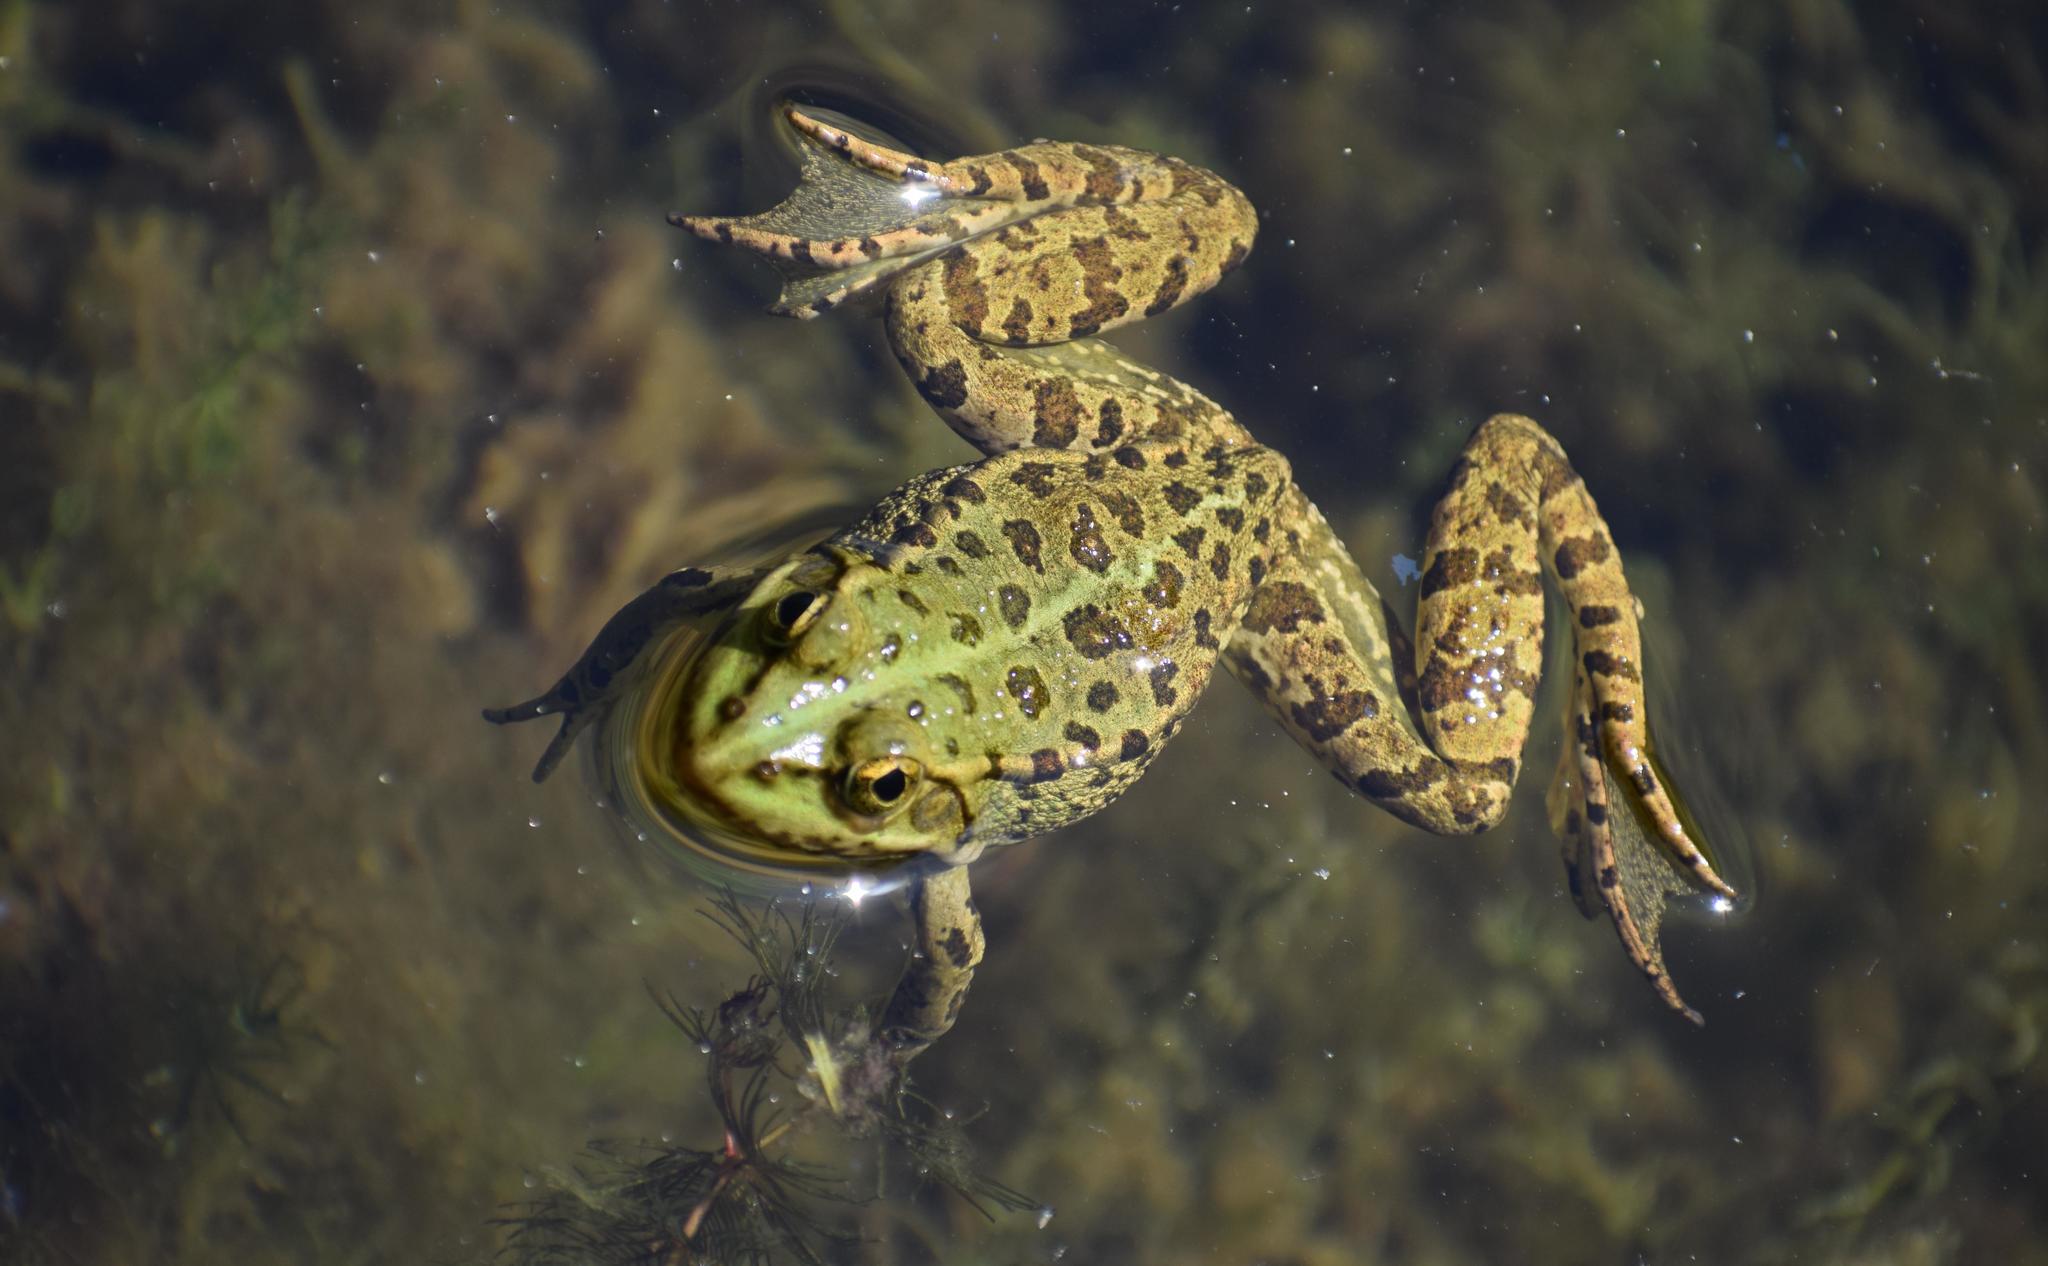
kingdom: Animalia
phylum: Chordata
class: Amphibia
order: Anura
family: Ranidae
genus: Pelophylax
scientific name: Pelophylax
